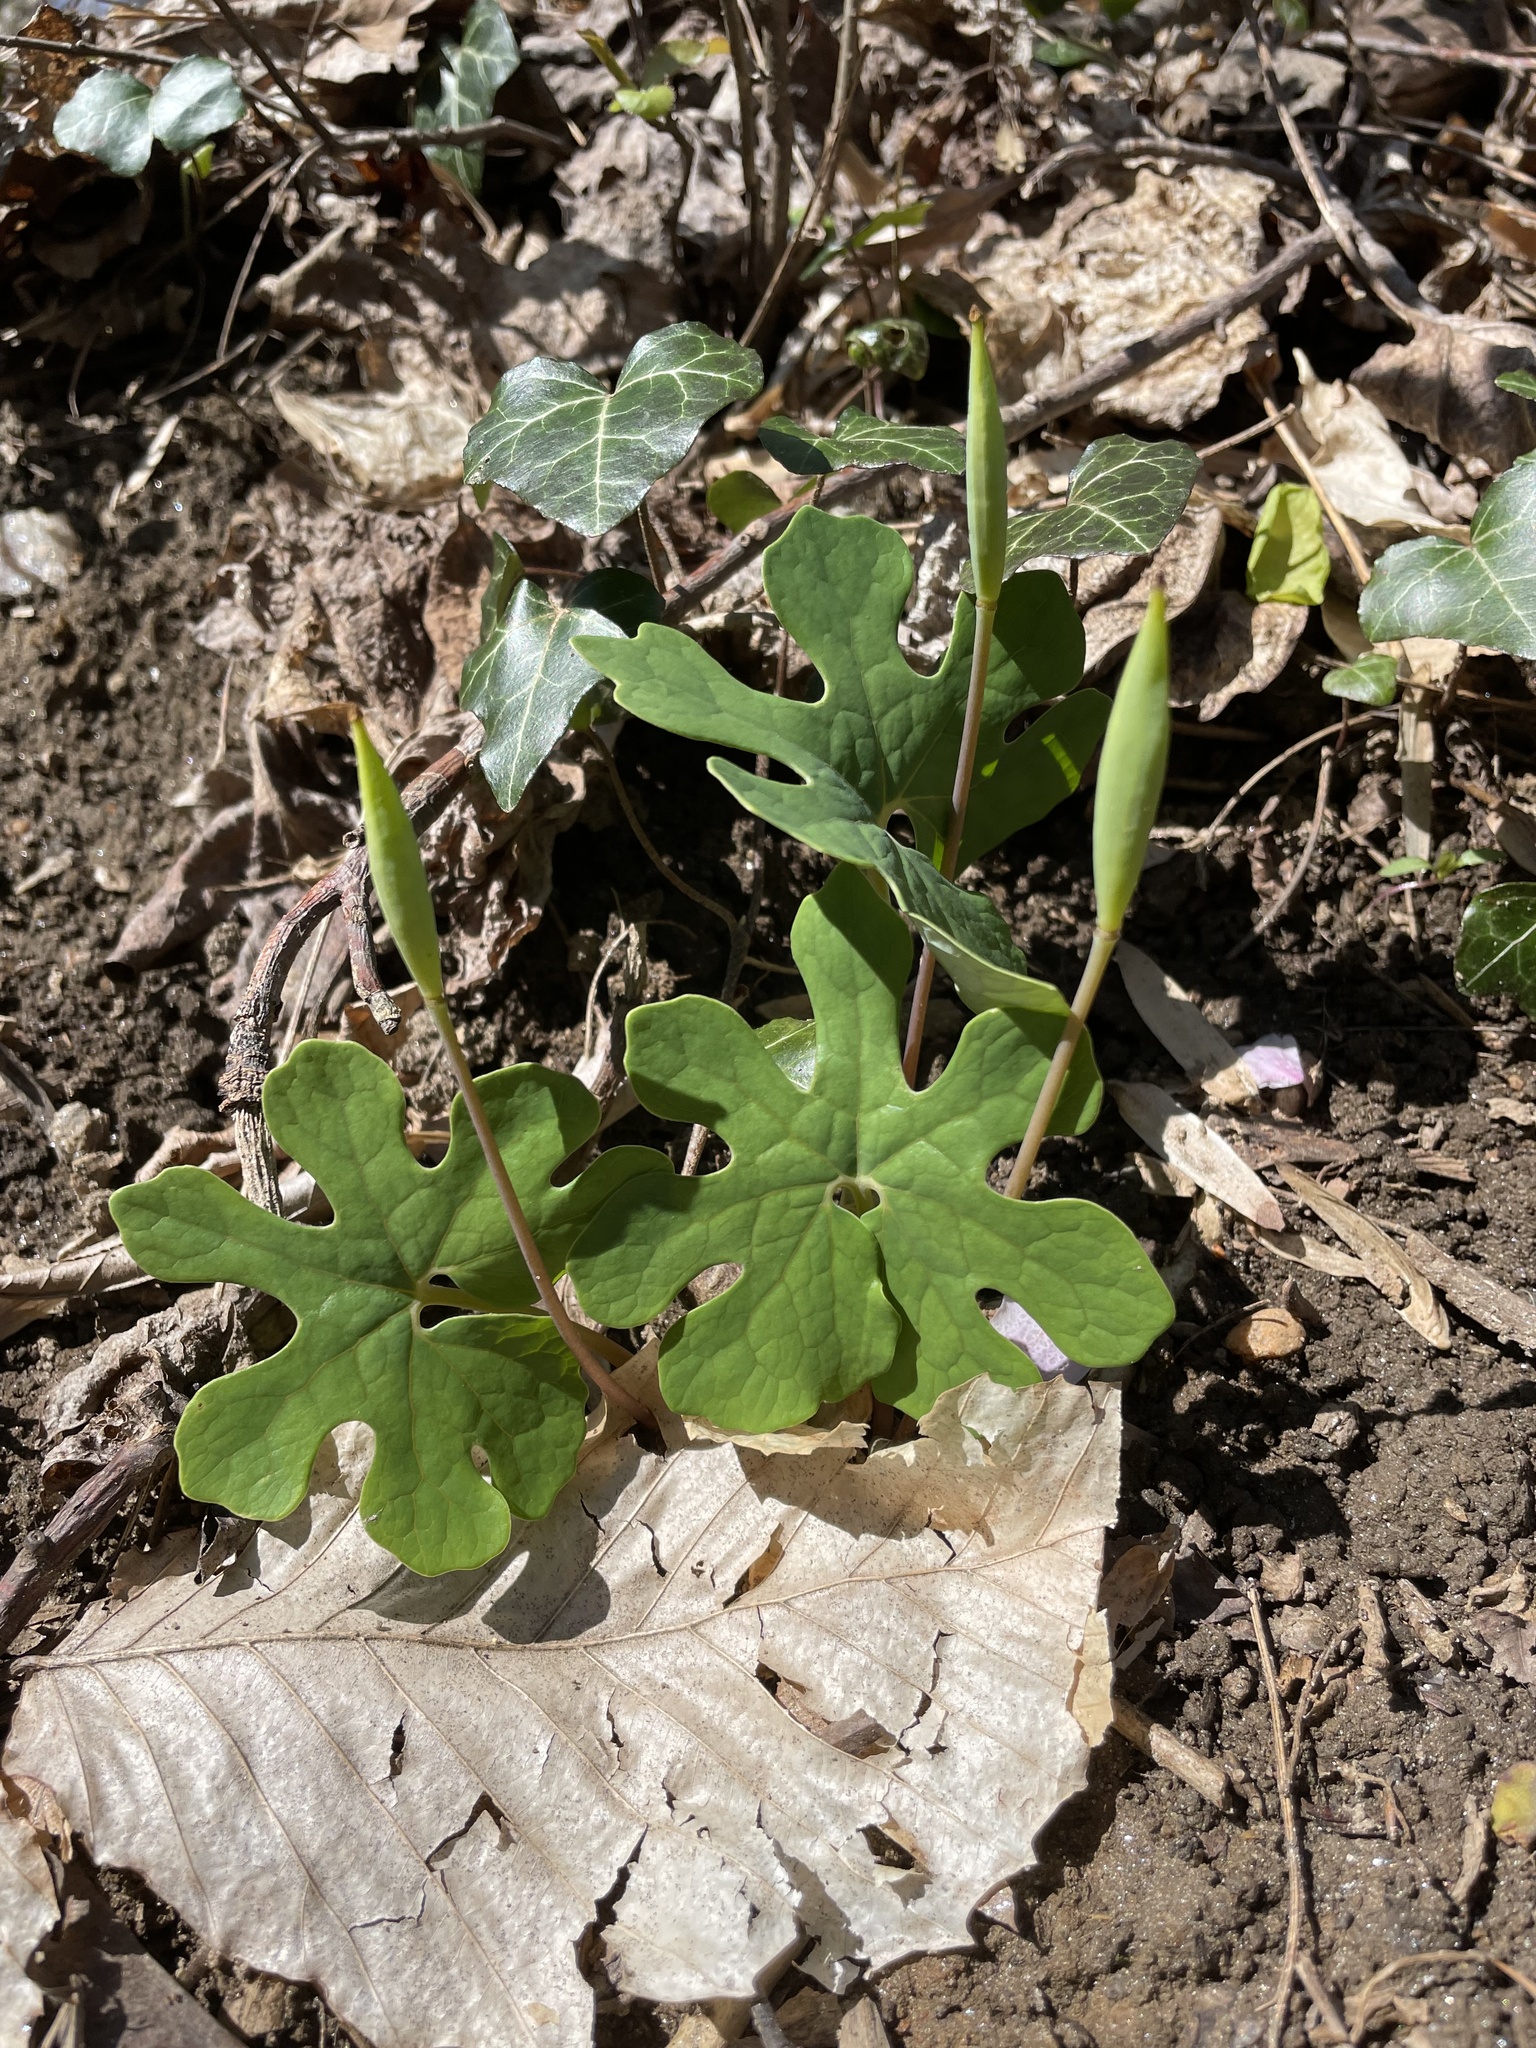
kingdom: Plantae
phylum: Tracheophyta
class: Magnoliopsida
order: Ranunculales
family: Papaveraceae
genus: Sanguinaria
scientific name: Sanguinaria canadensis
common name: Bloodroot
